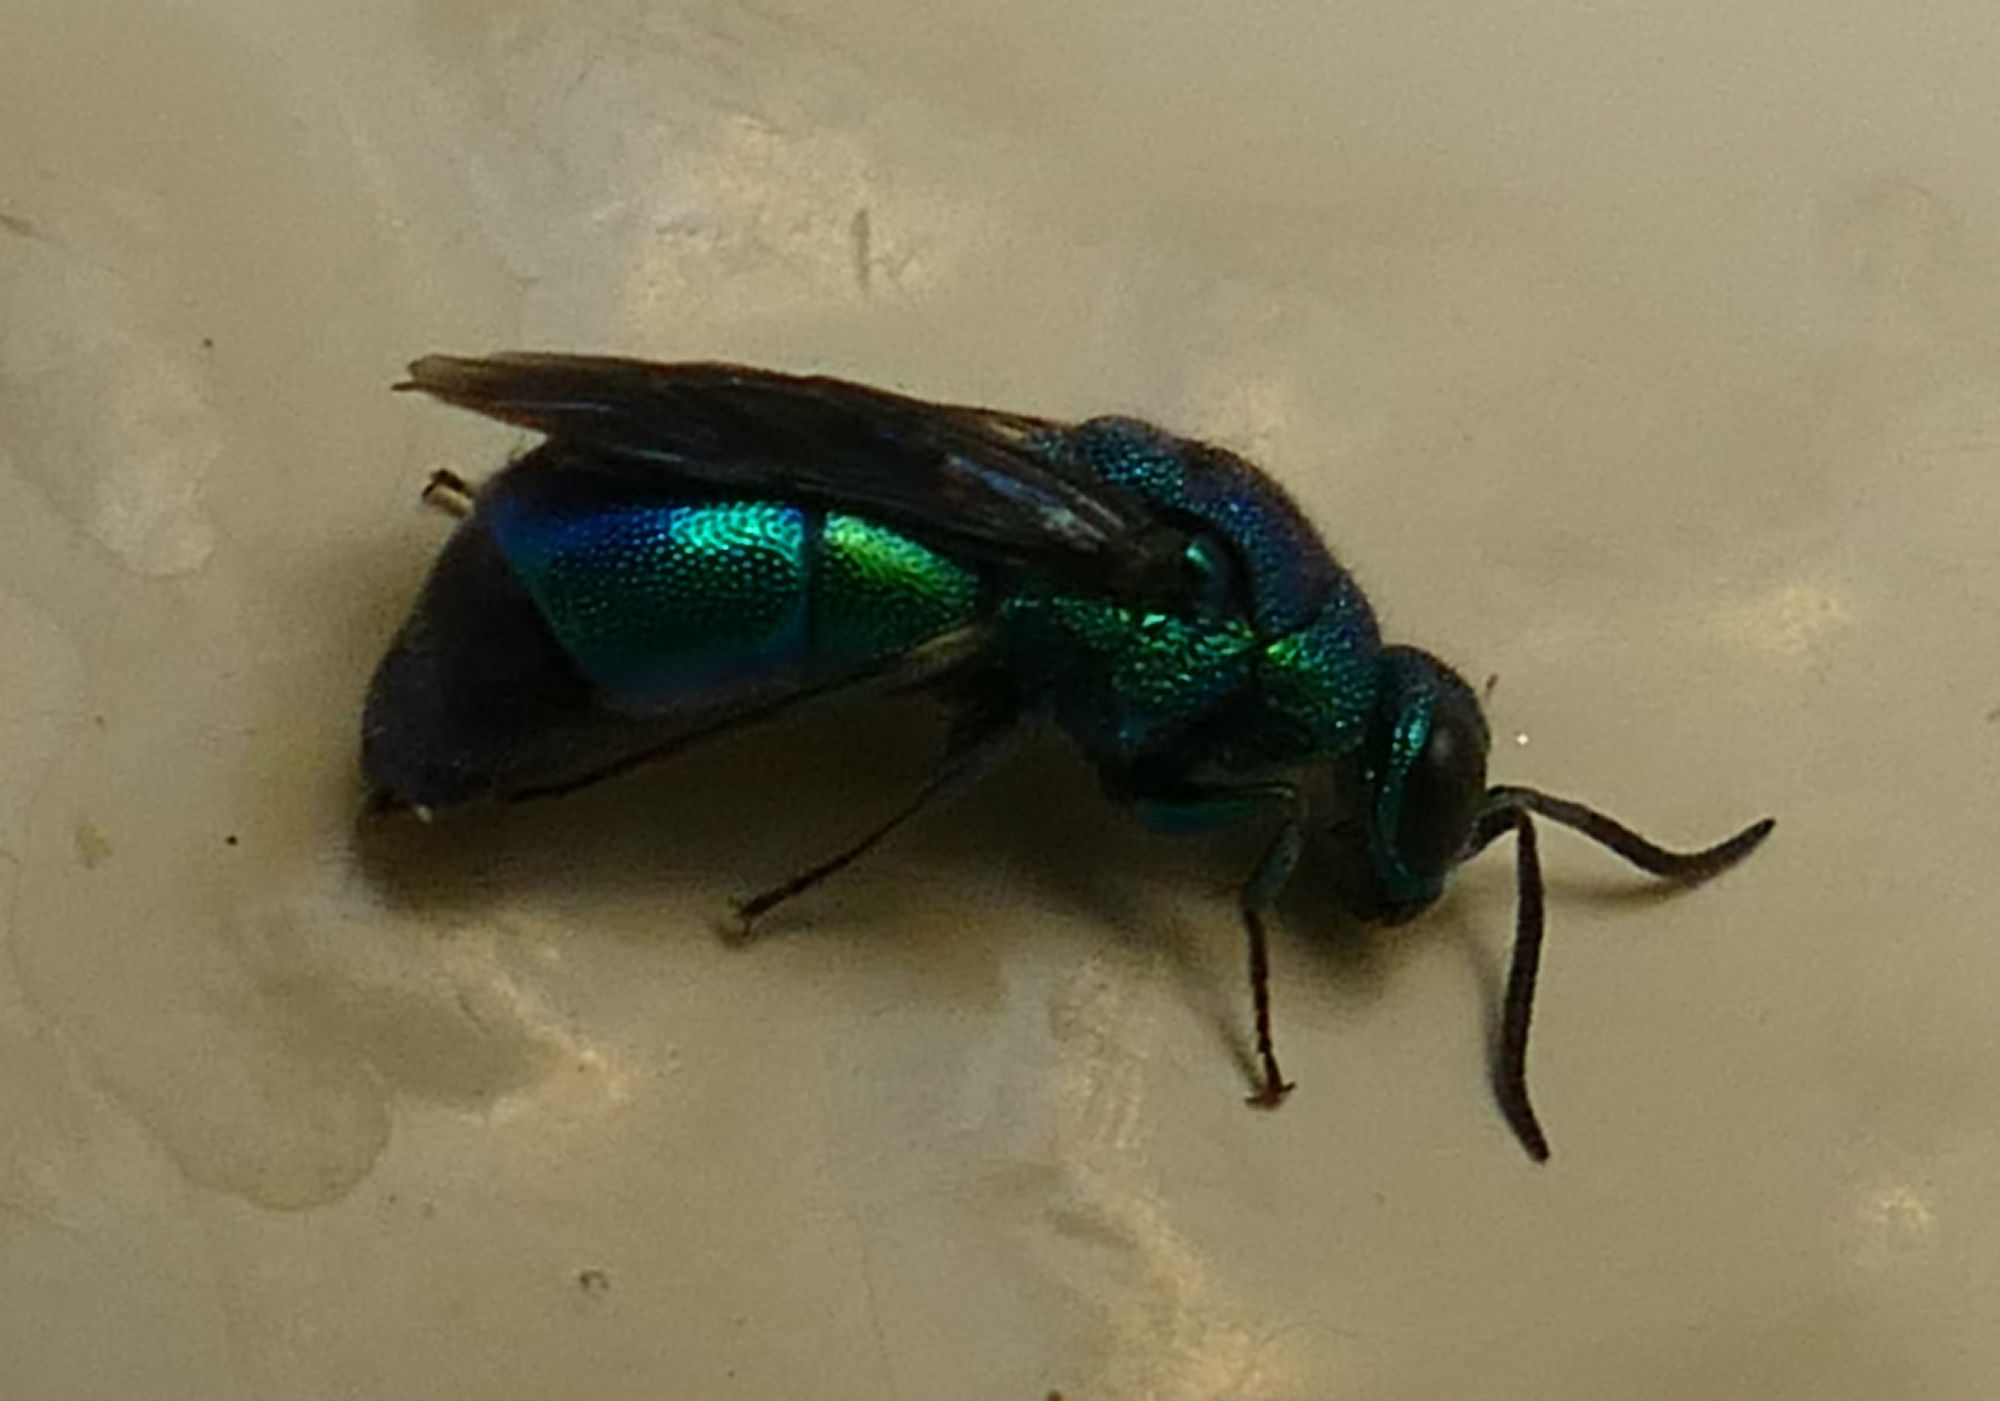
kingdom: Animalia
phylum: Arthropoda
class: Insecta
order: Hymenoptera
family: Chrysididae
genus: Chrysis
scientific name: Chrysis angolensis
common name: Cuckoo wasp
